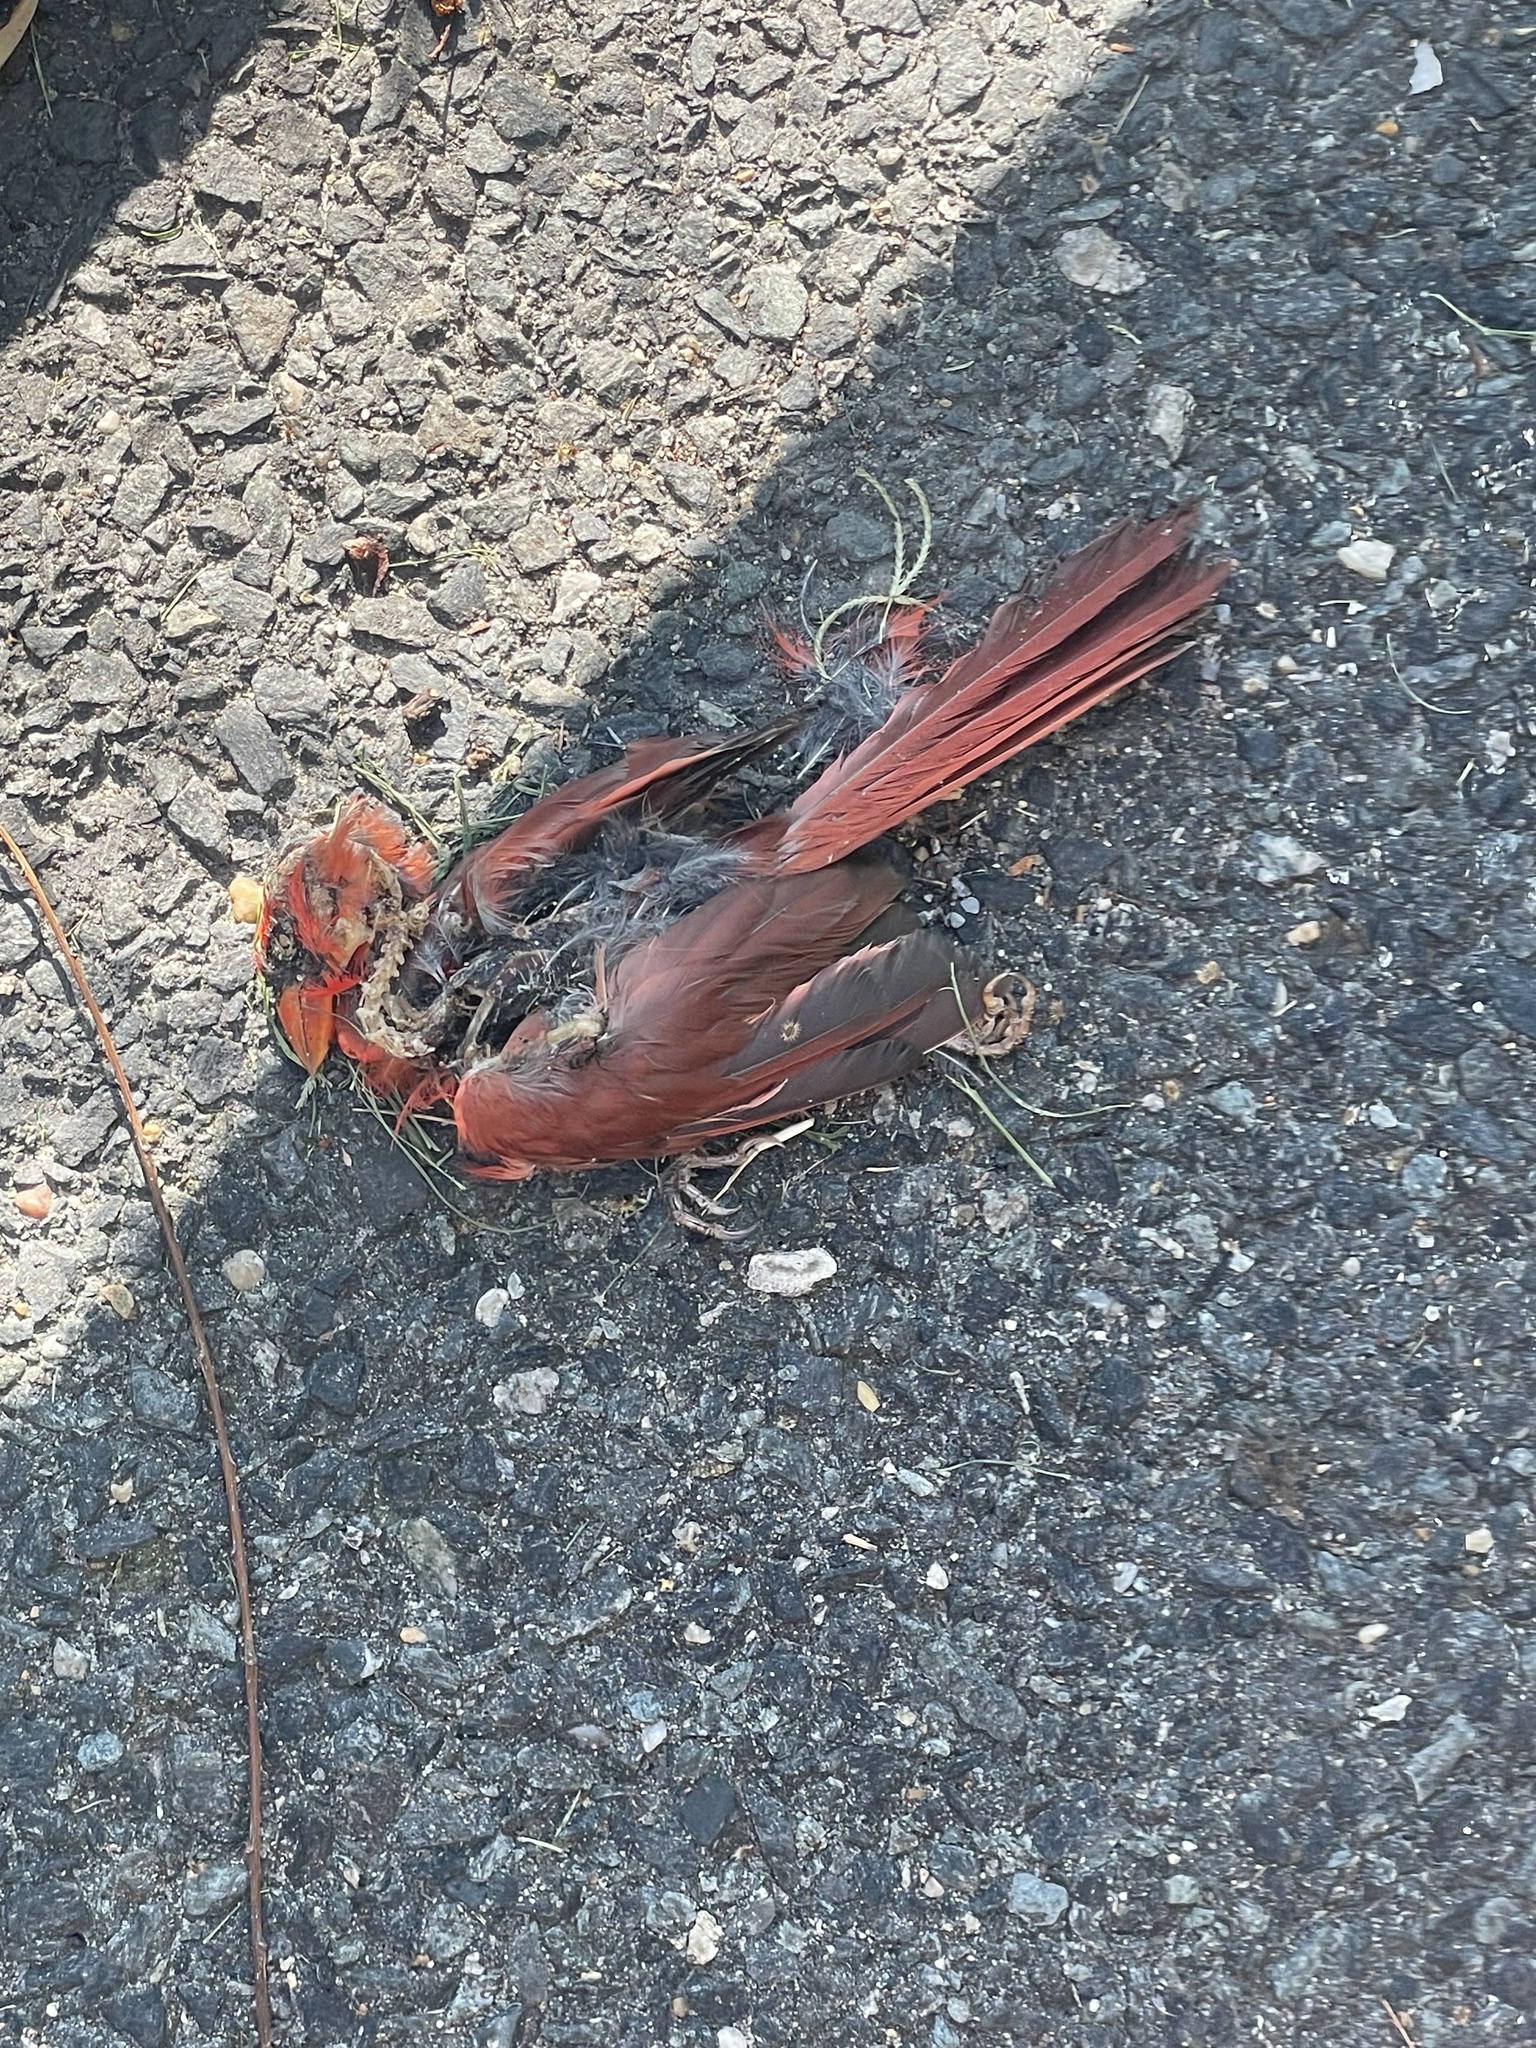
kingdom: Animalia
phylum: Chordata
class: Aves
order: Passeriformes
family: Cardinalidae
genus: Cardinalis
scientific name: Cardinalis cardinalis
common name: Northern cardinal
